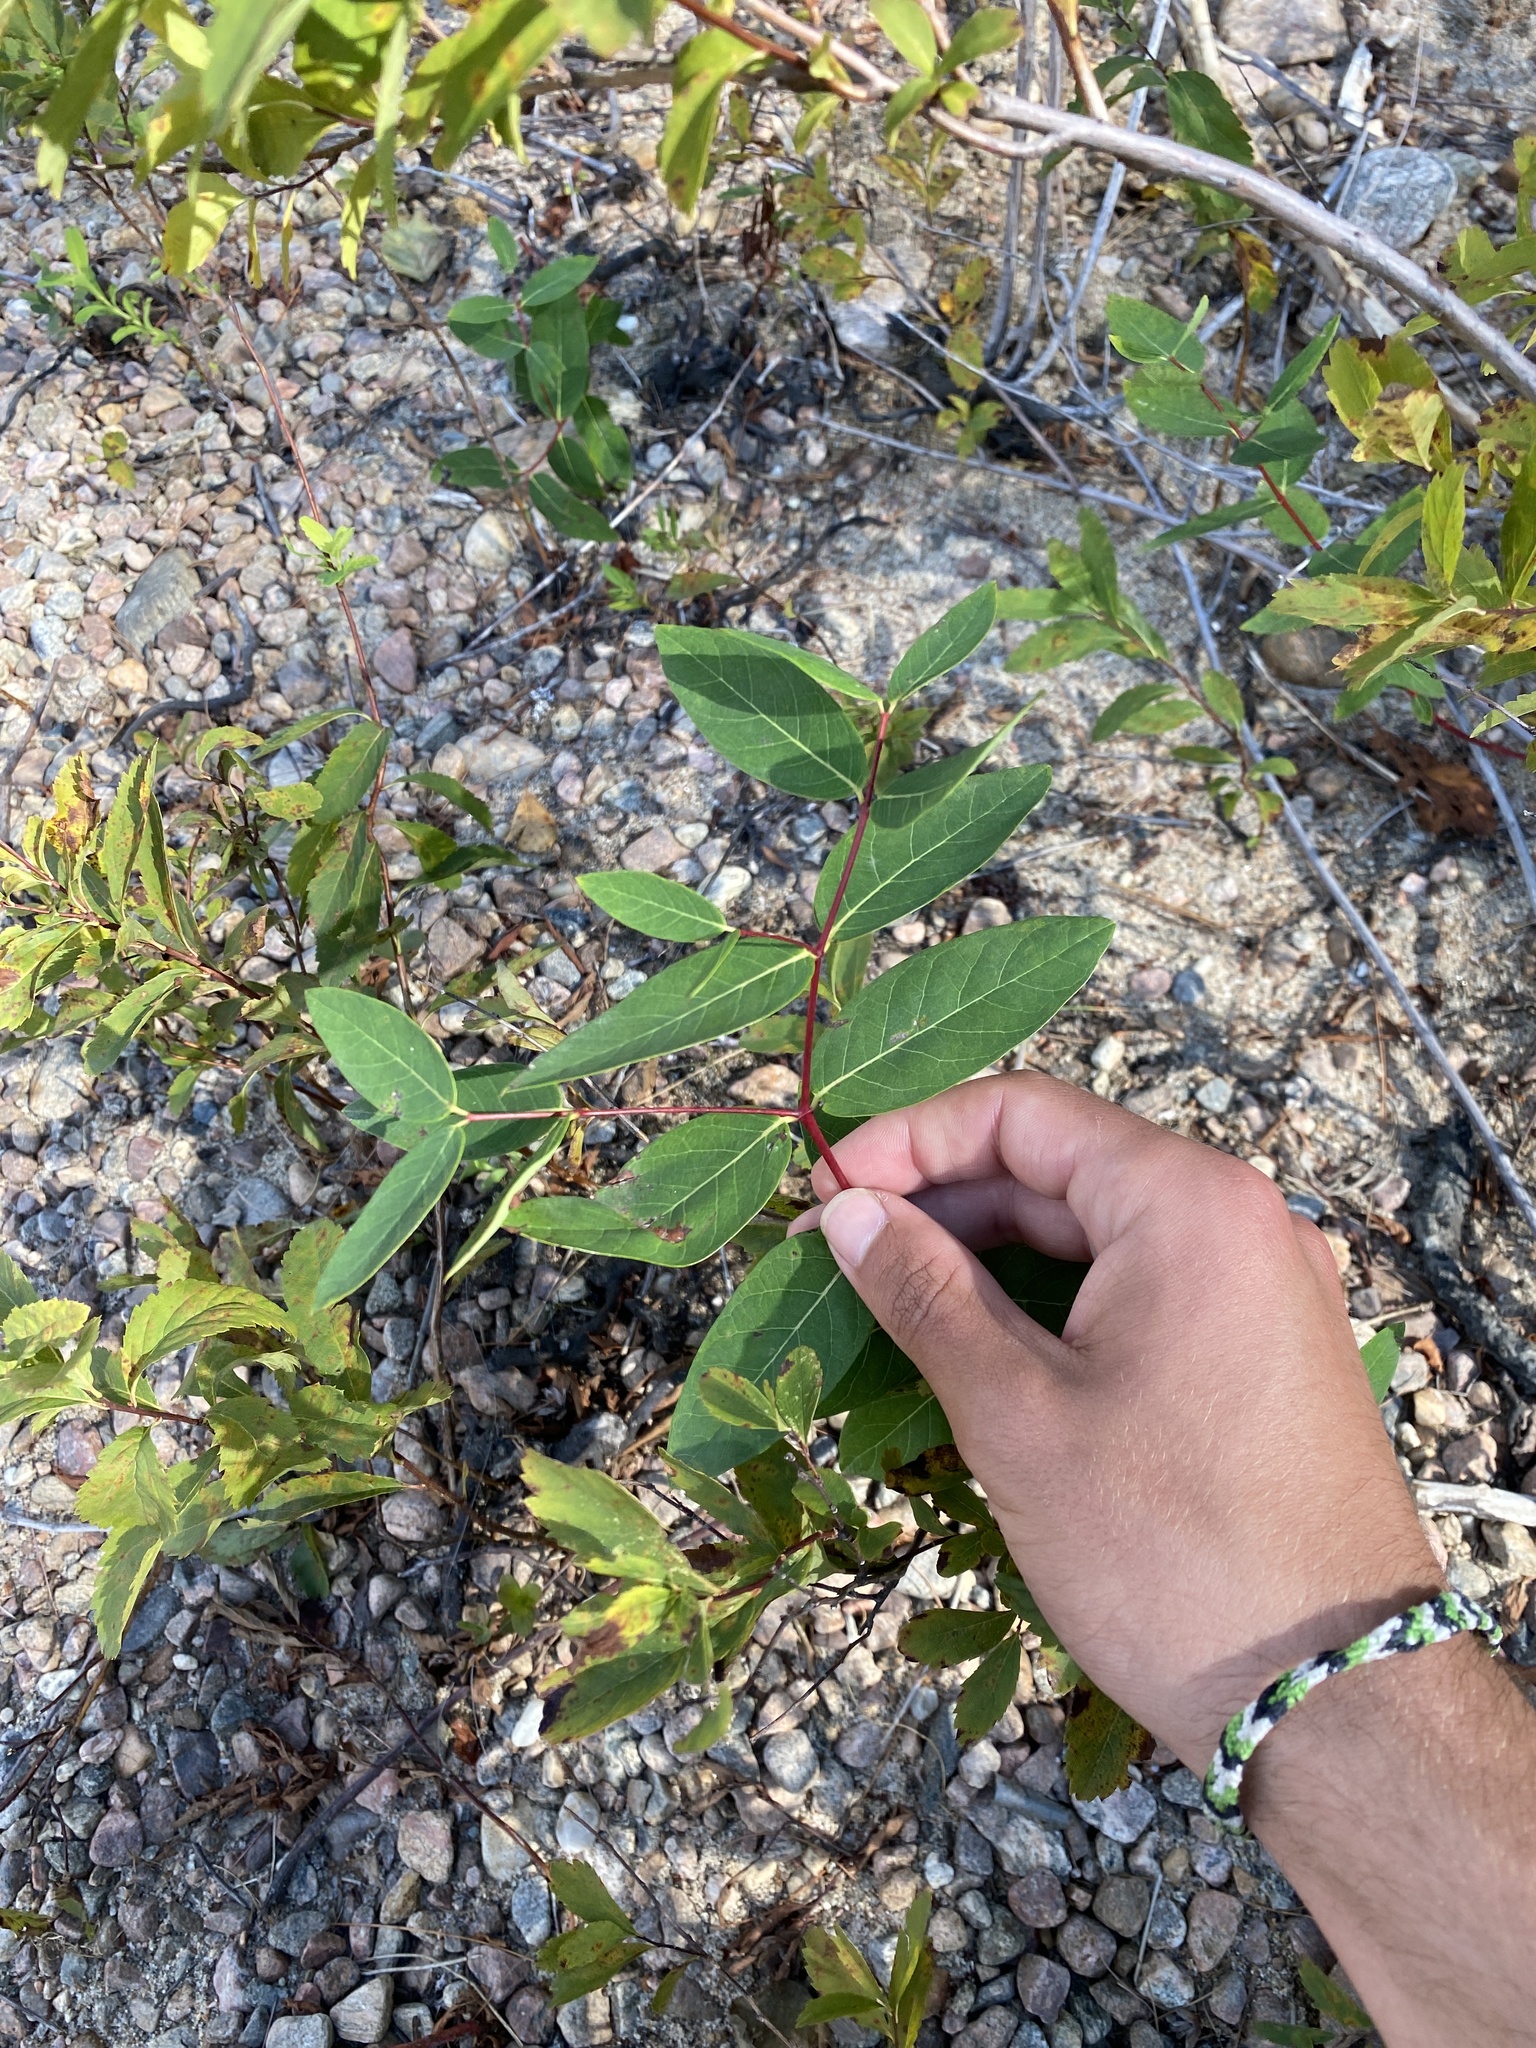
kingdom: Plantae
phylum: Tracheophyta
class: Magnoliopsida
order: Gentianales
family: Apocynaceae
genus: Apocynum
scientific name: Apocynum cannabinum
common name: Hemp dogbane
